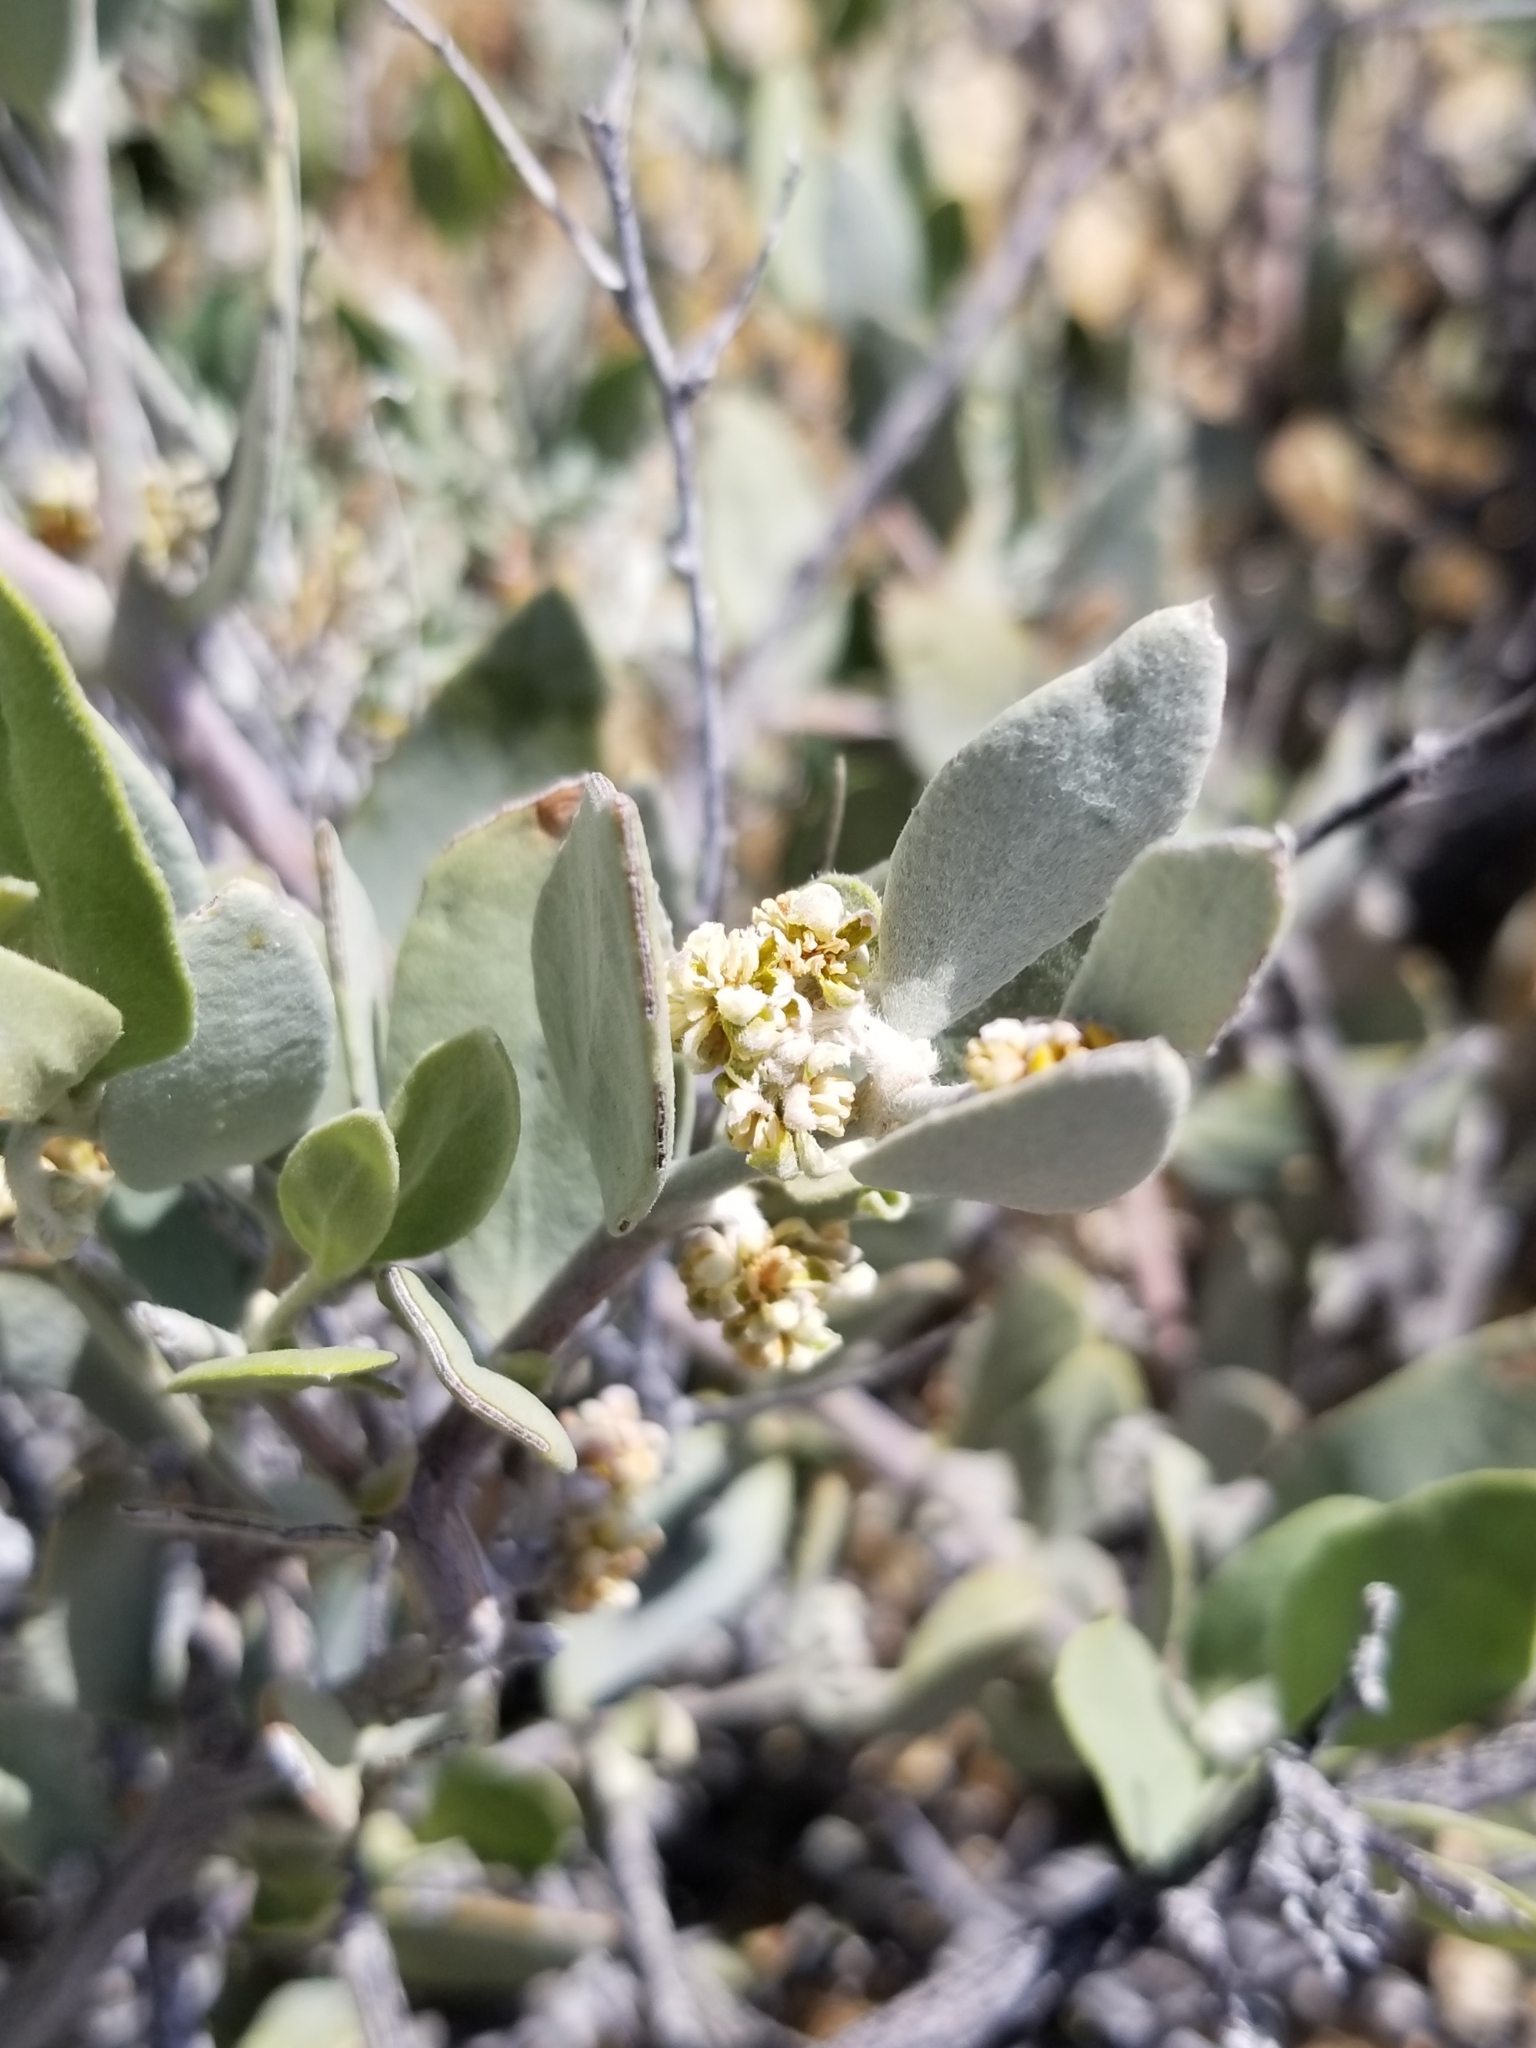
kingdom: Plantae
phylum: Tracheophyta
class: Magnoliopsida
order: Caryophyllales
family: Simmondsiaceae
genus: Simmondsia
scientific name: Simmondsia chinensis
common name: Jojoba
